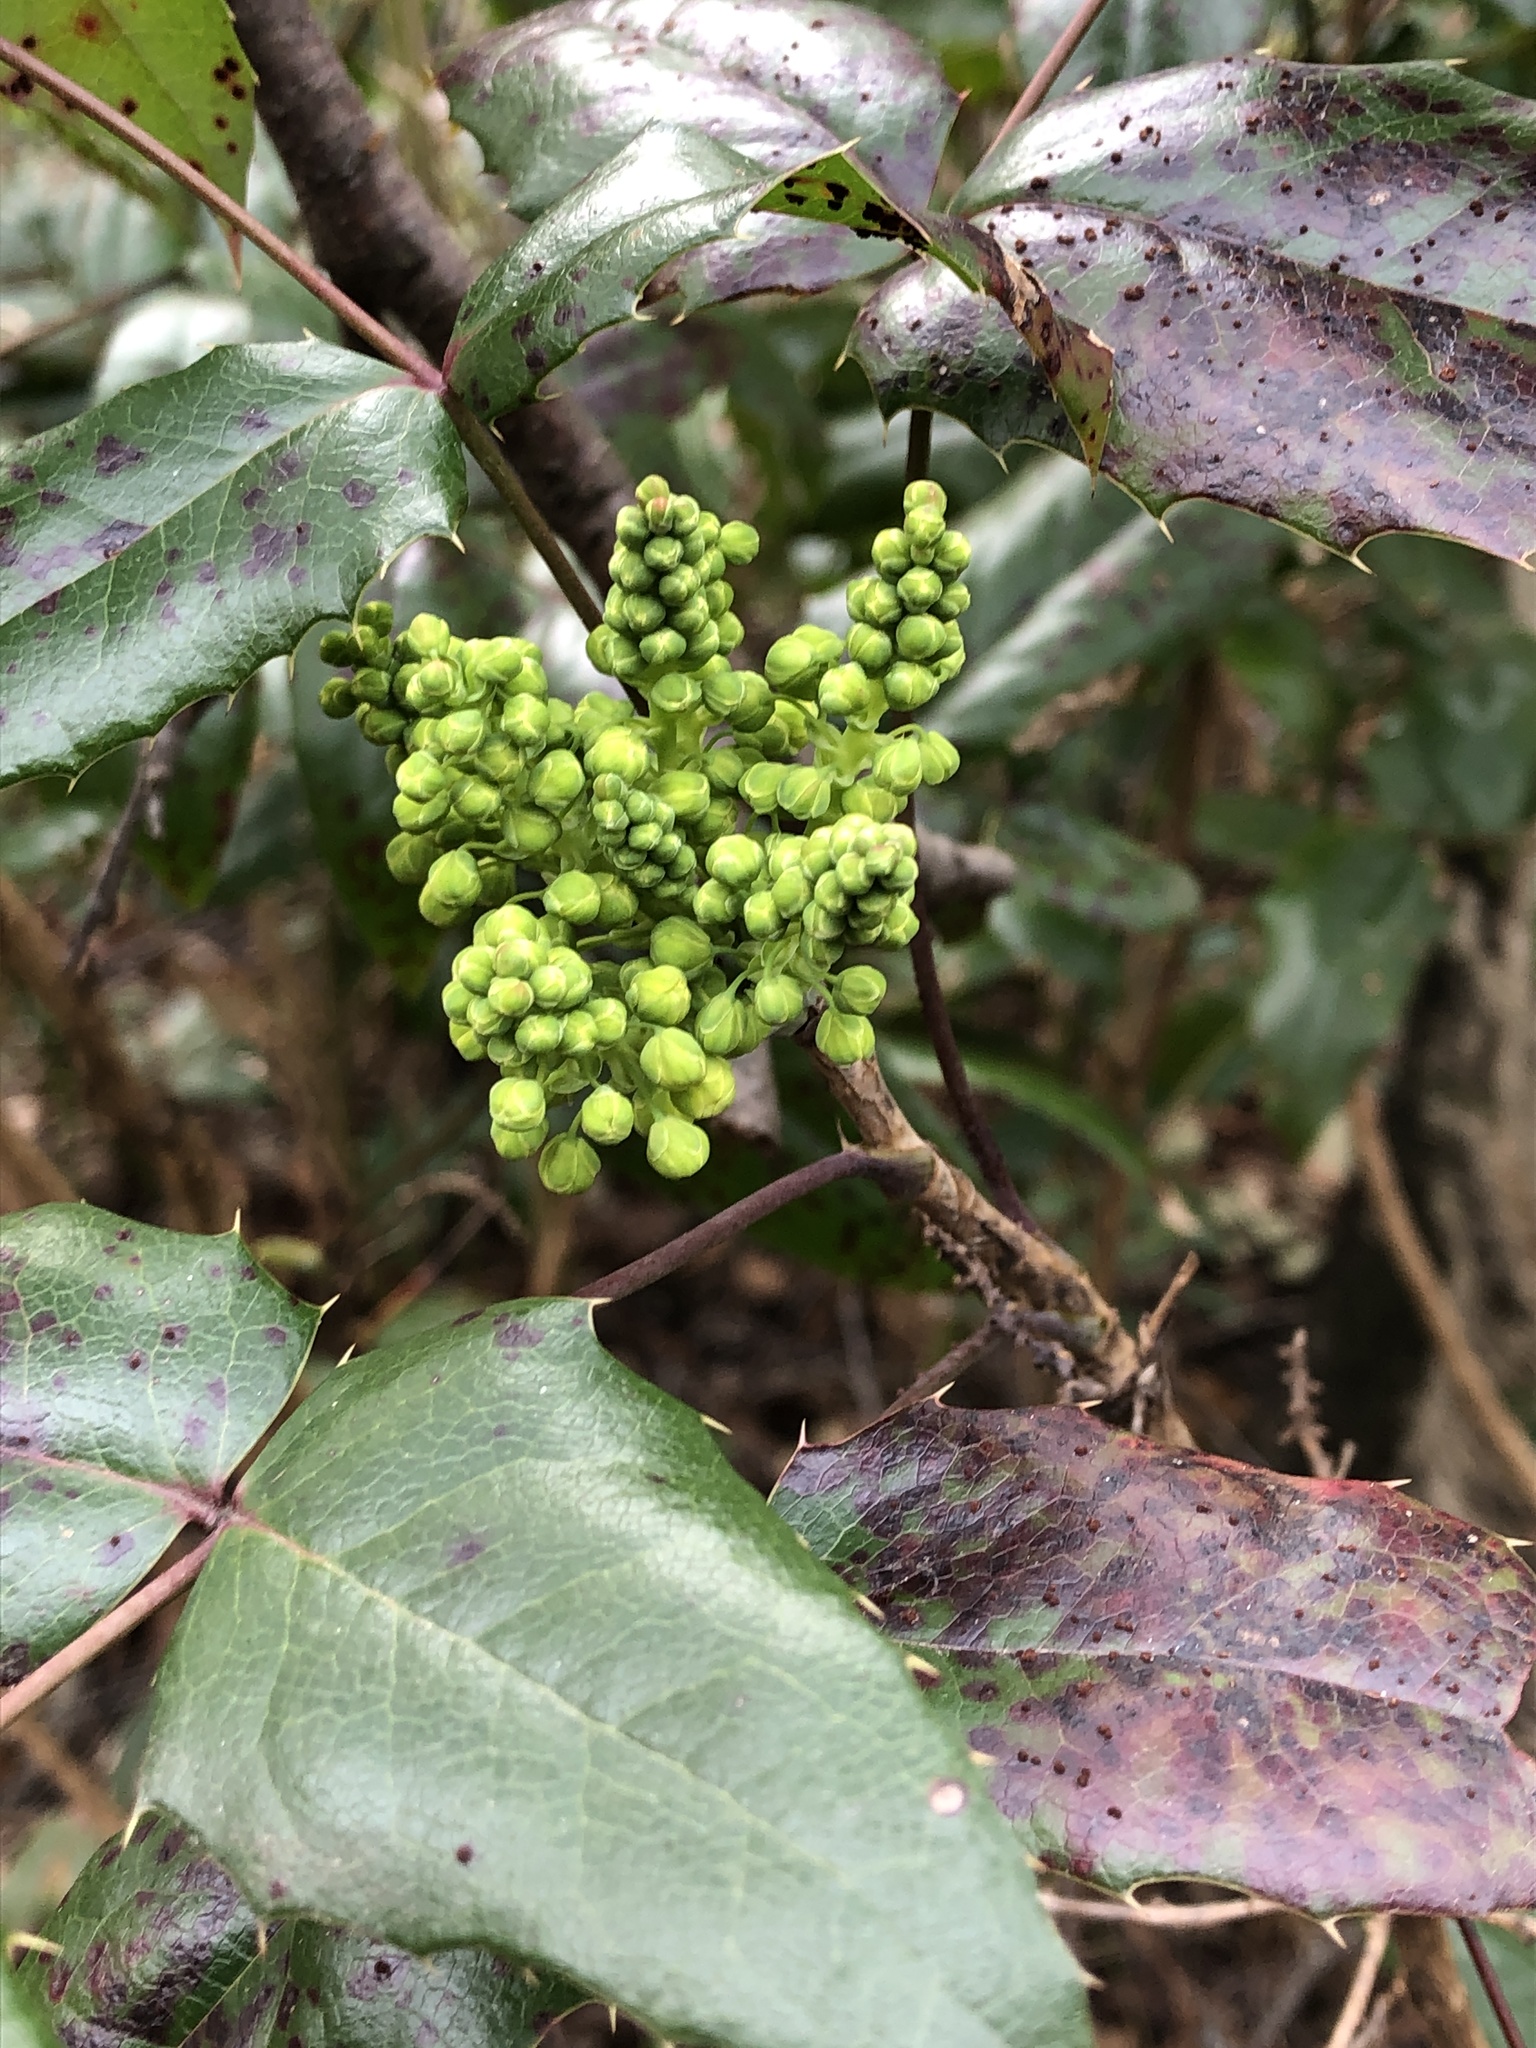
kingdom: Plantae
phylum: Tracheophyta
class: Magnoliopsida
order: Ranunculales
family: Berberidaceae
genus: Mahonia
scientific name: Mahonia aquifolium
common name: Oregon-grape
